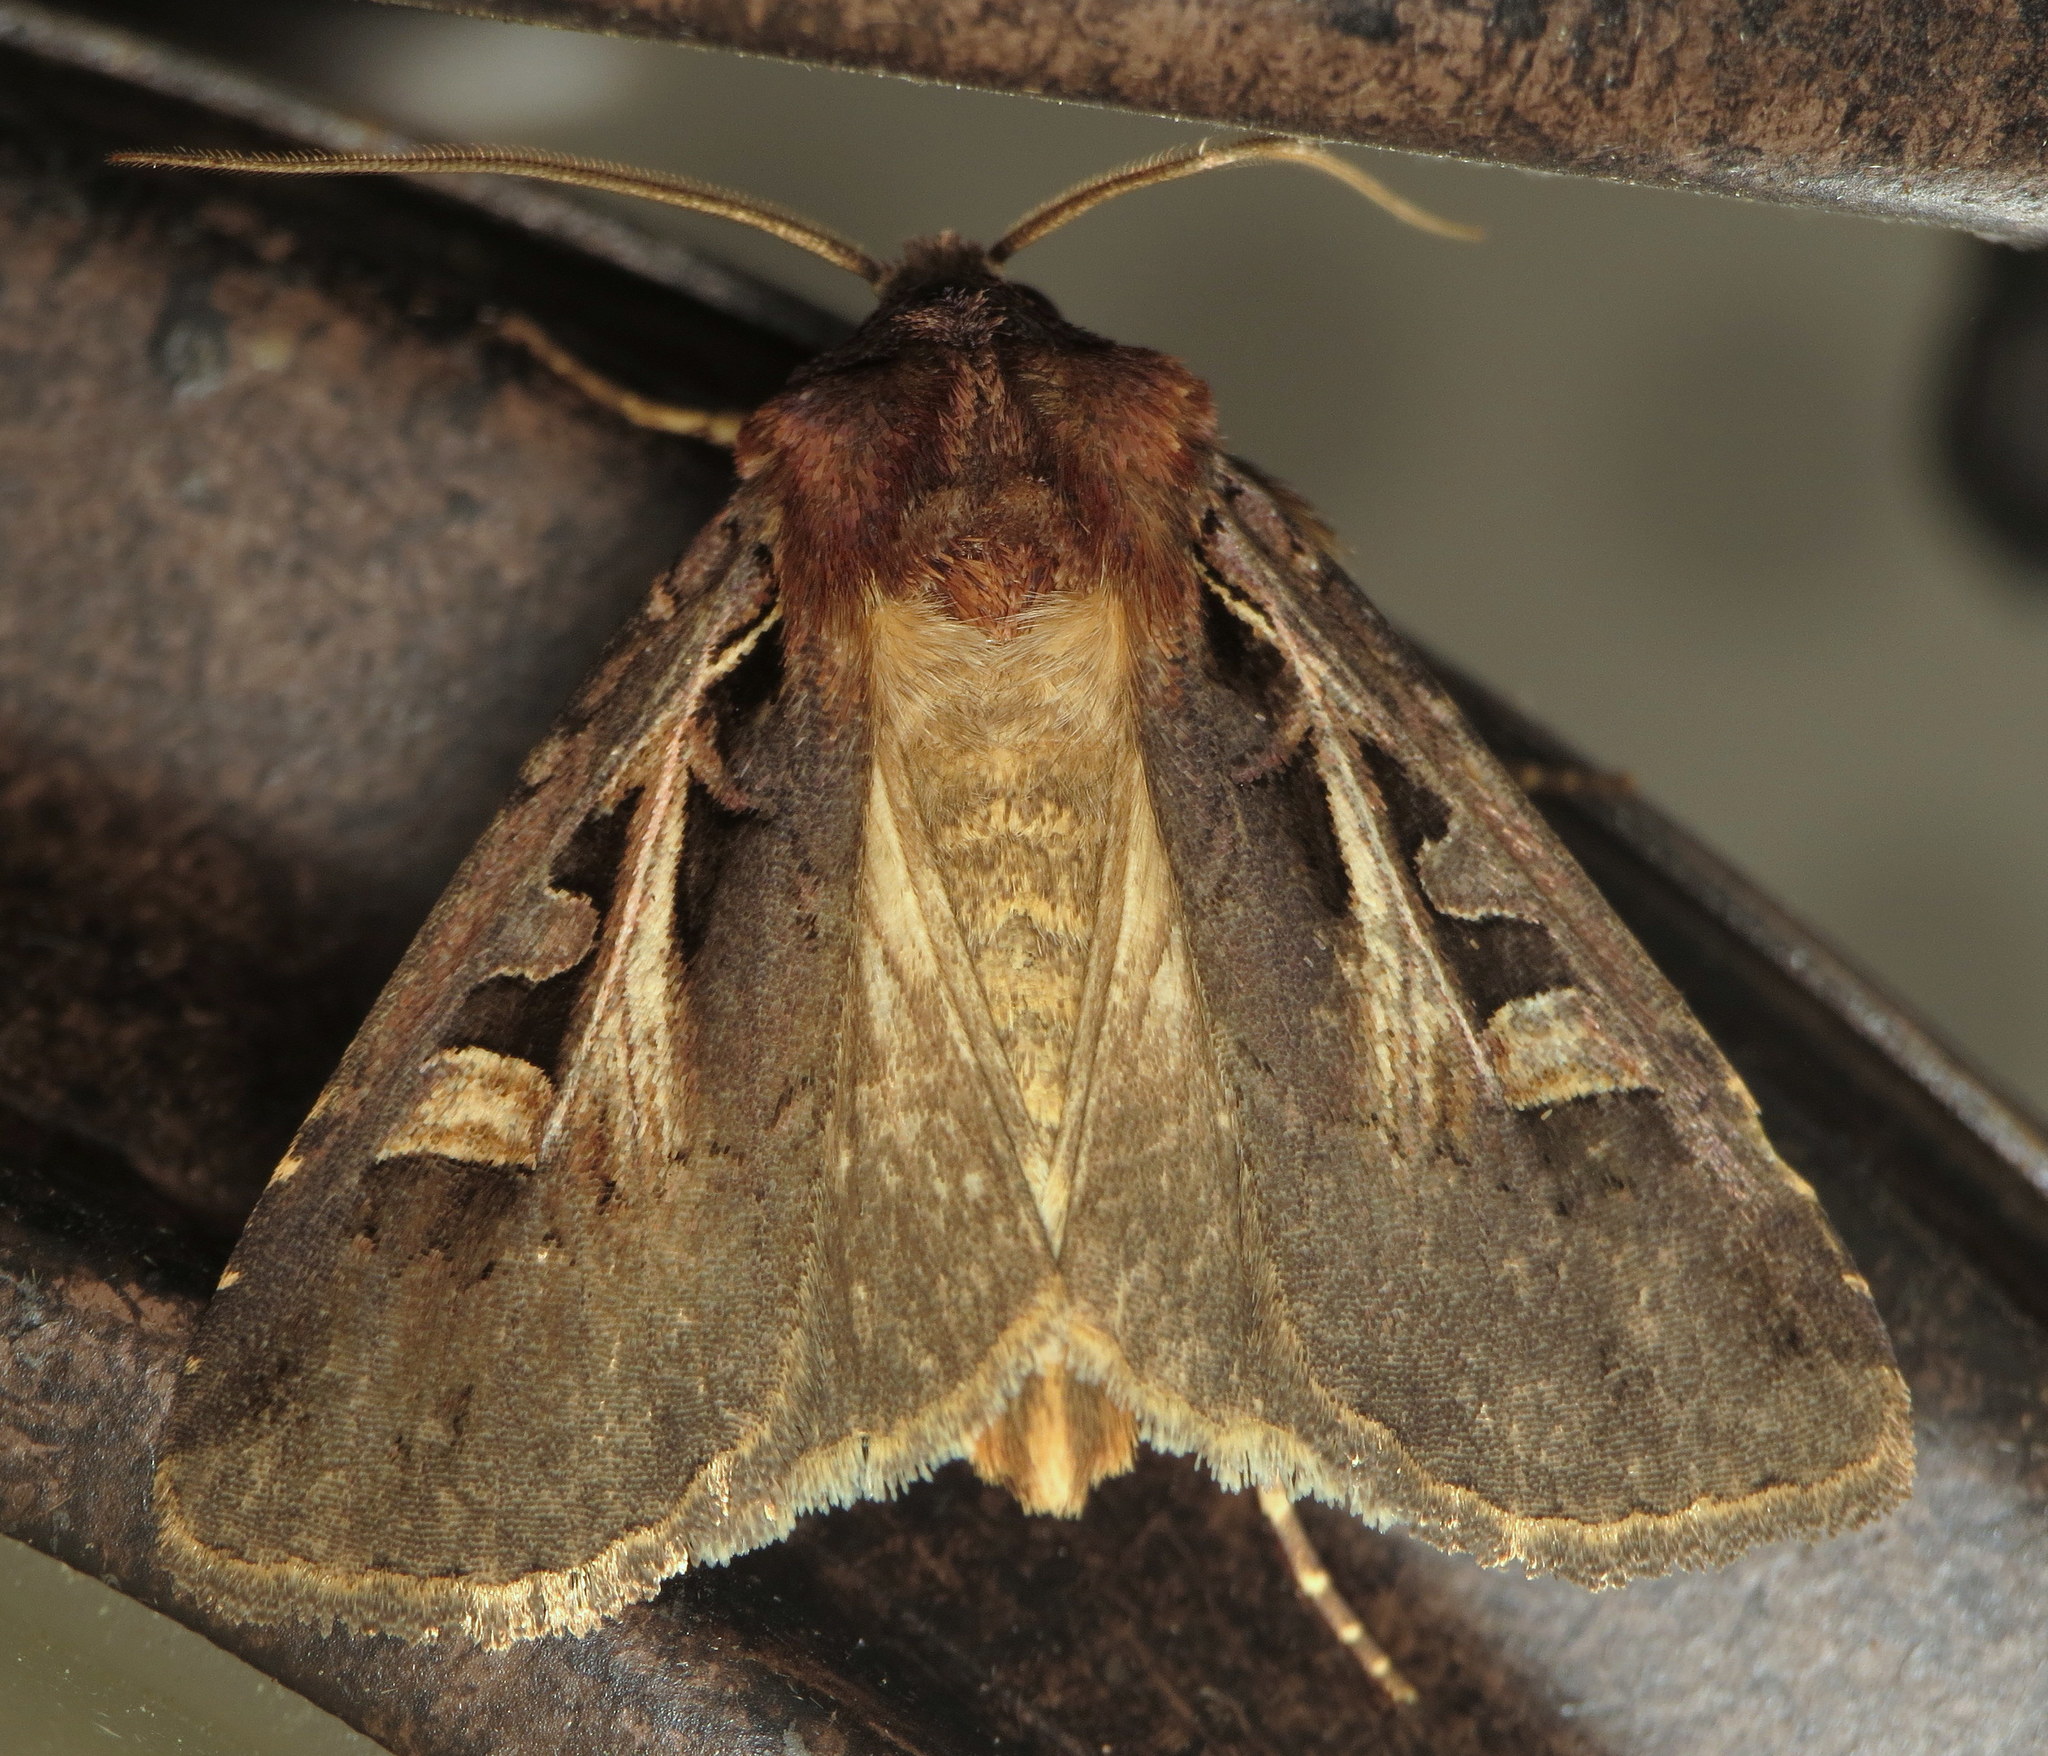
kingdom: Animalia
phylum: Arthropoda
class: Insecta
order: Lepidoptera
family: Noctuidae
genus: Feltia
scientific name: Feltia herilis
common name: Master's dart
